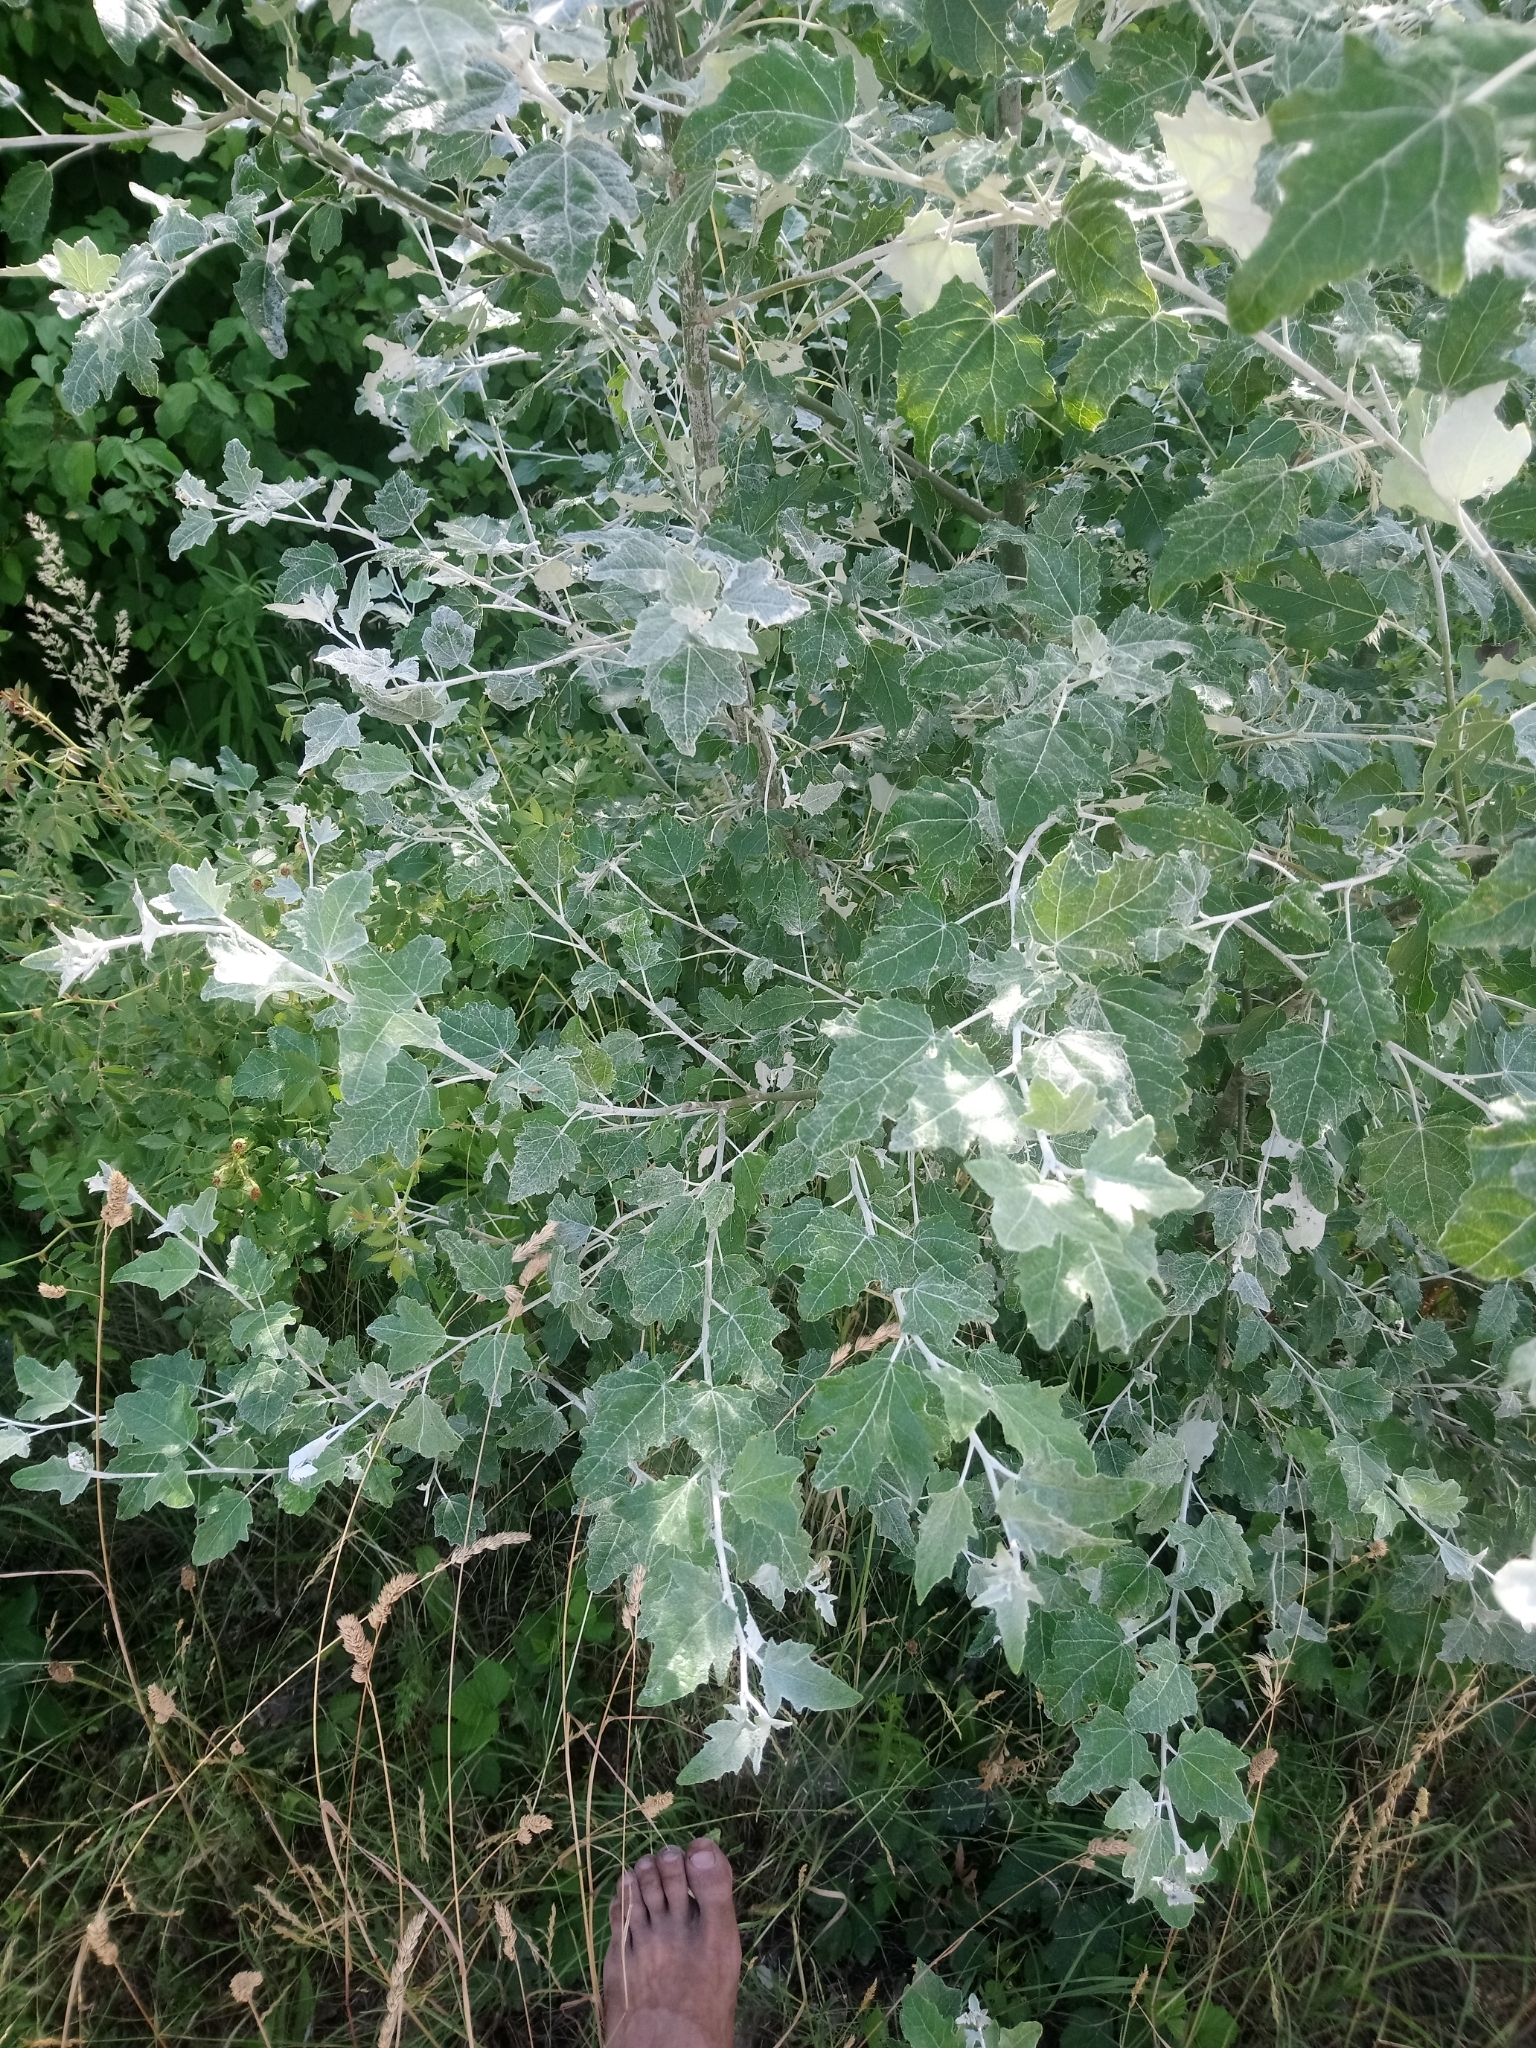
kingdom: Plantae
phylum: Tracheophyta
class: Magnoliopsida
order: Malpighiales
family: Salicaceae
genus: Populus
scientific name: Populus alba
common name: White poplar
